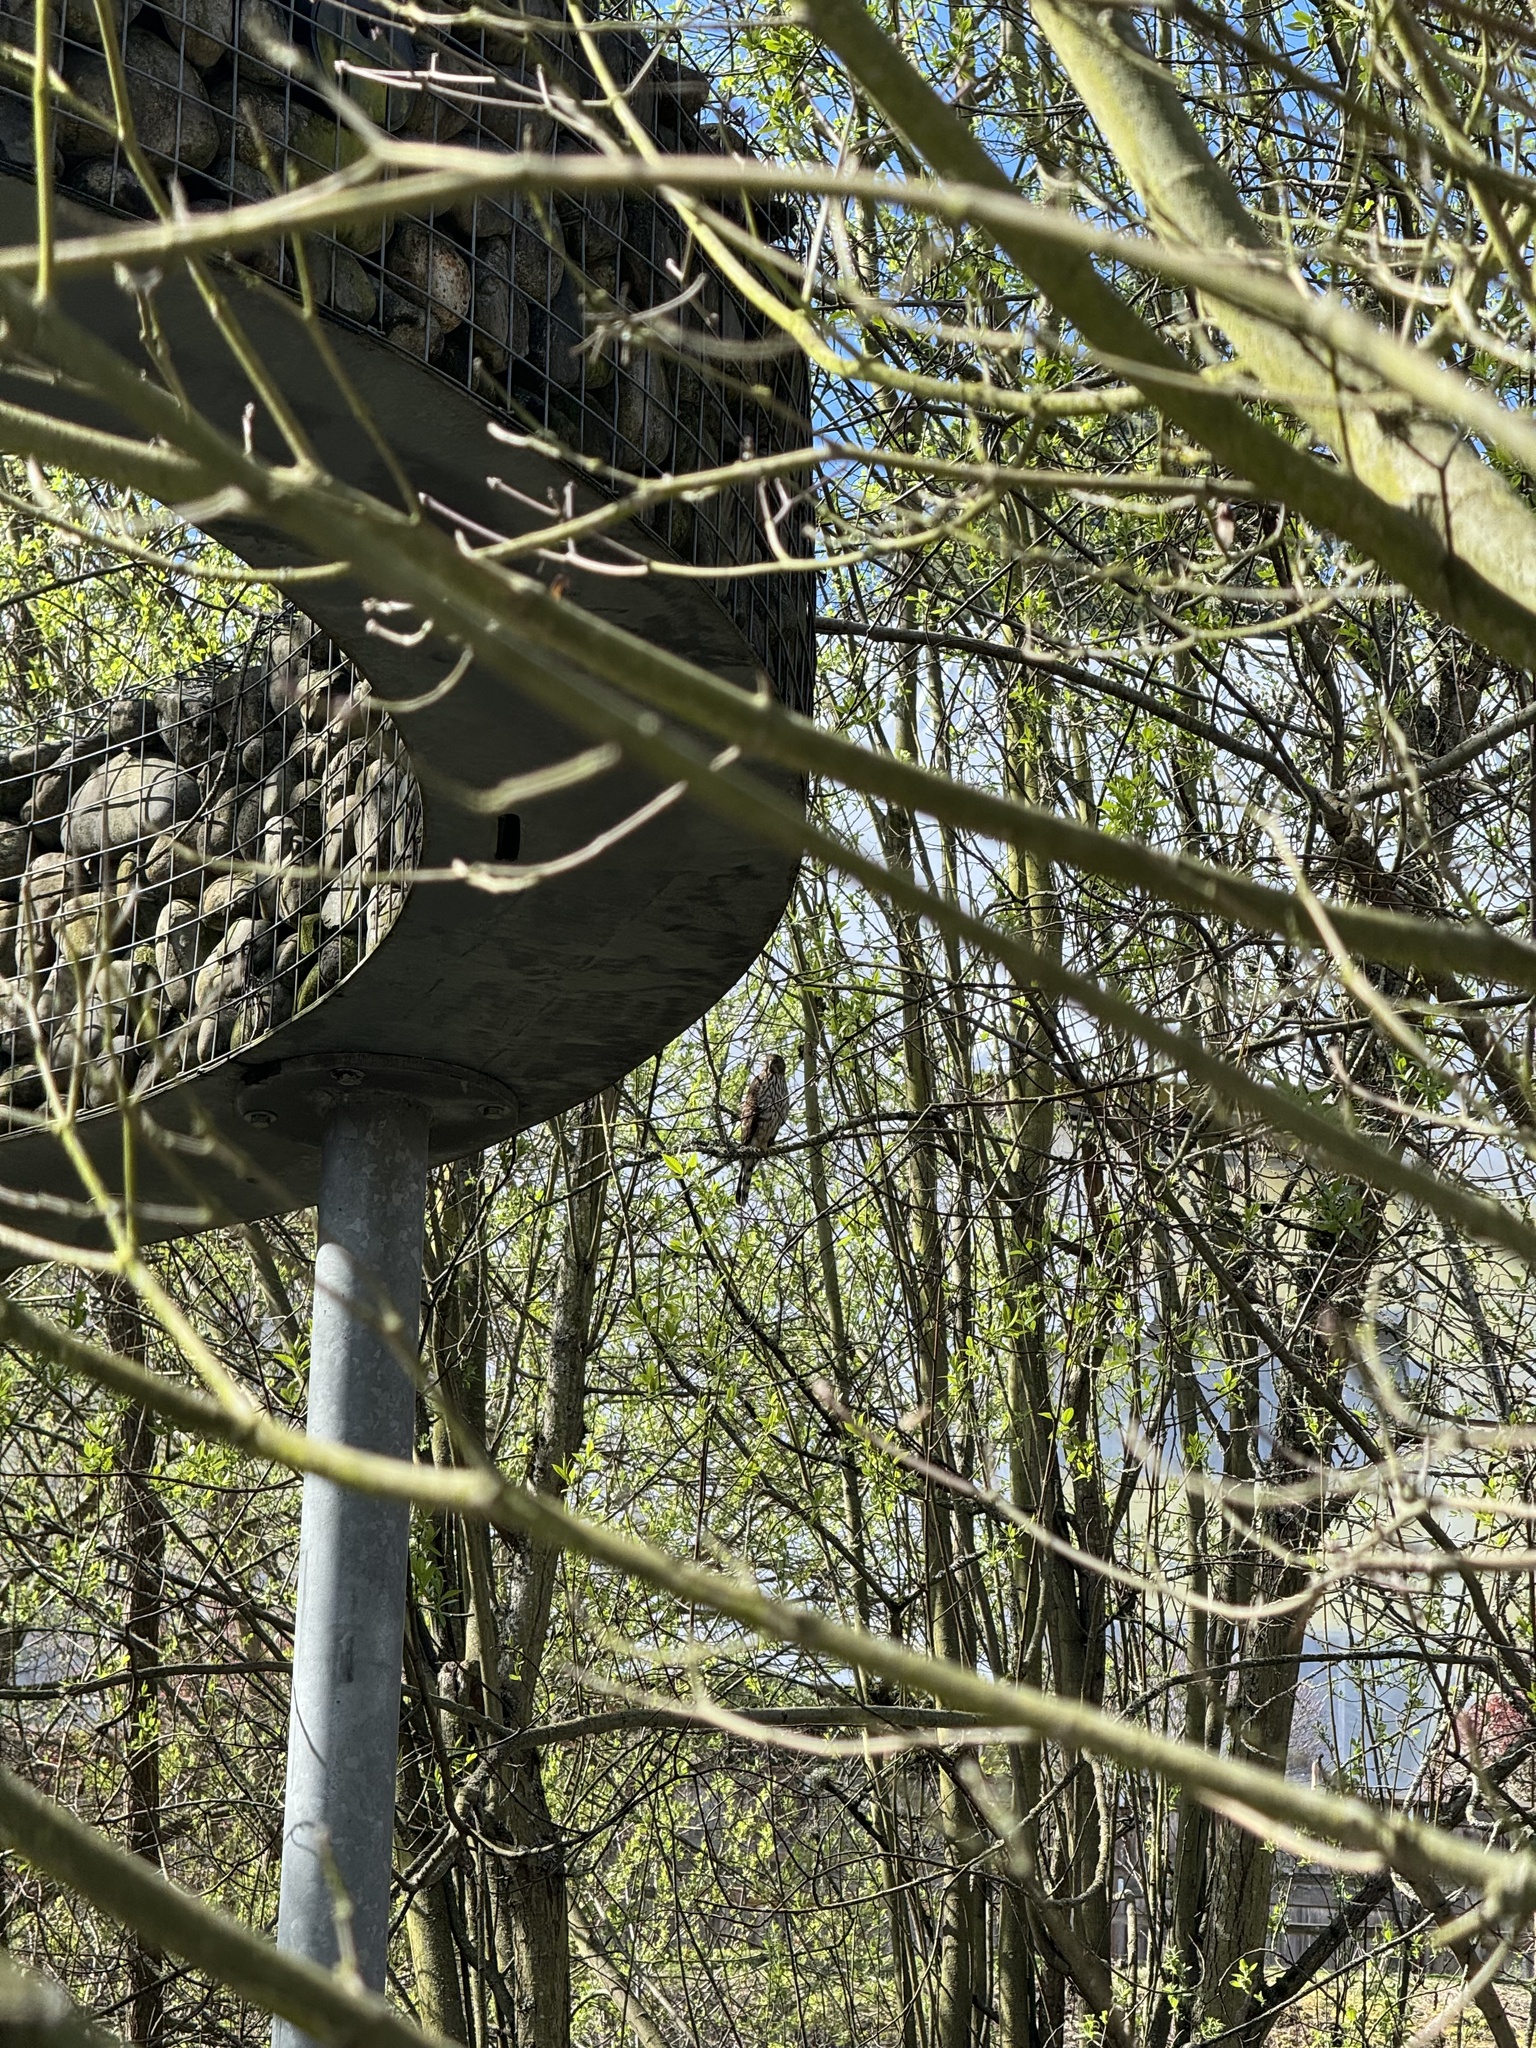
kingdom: Animalia
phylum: Chordata
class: Aves
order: Accipitriformes
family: Accipitridae
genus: Accipiter
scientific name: Accipiter cooperii
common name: Cooper's hawk
